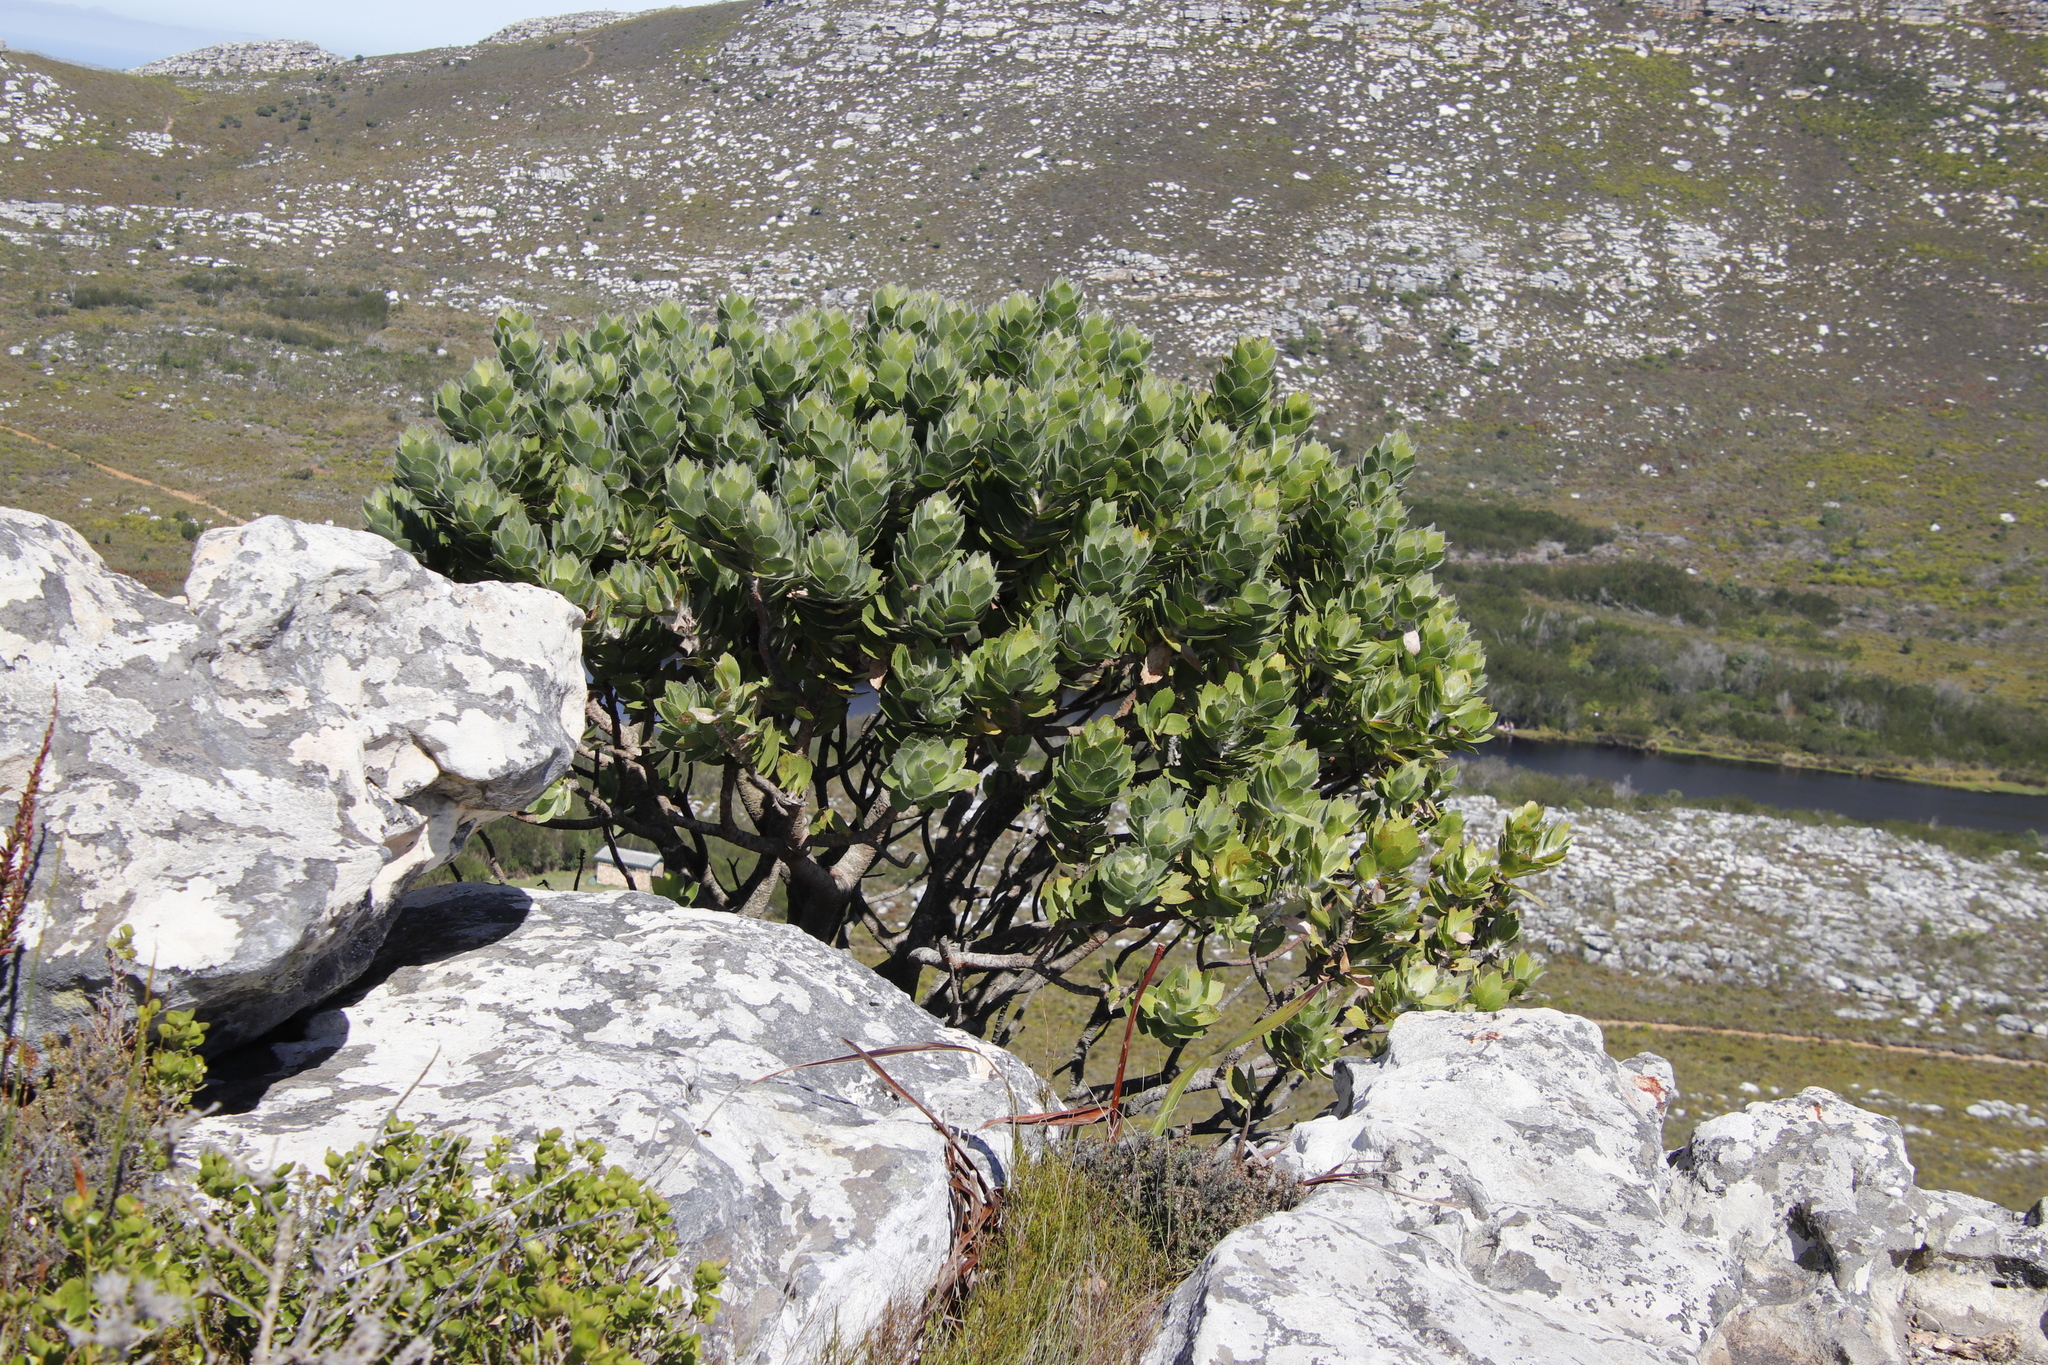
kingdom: Plantae
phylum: Tracheophyta
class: Magnoliopsida
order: Proteales
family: Proteaceae
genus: Leucospermum
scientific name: Leucospermum conocarpodendron
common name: Tree pincushion
